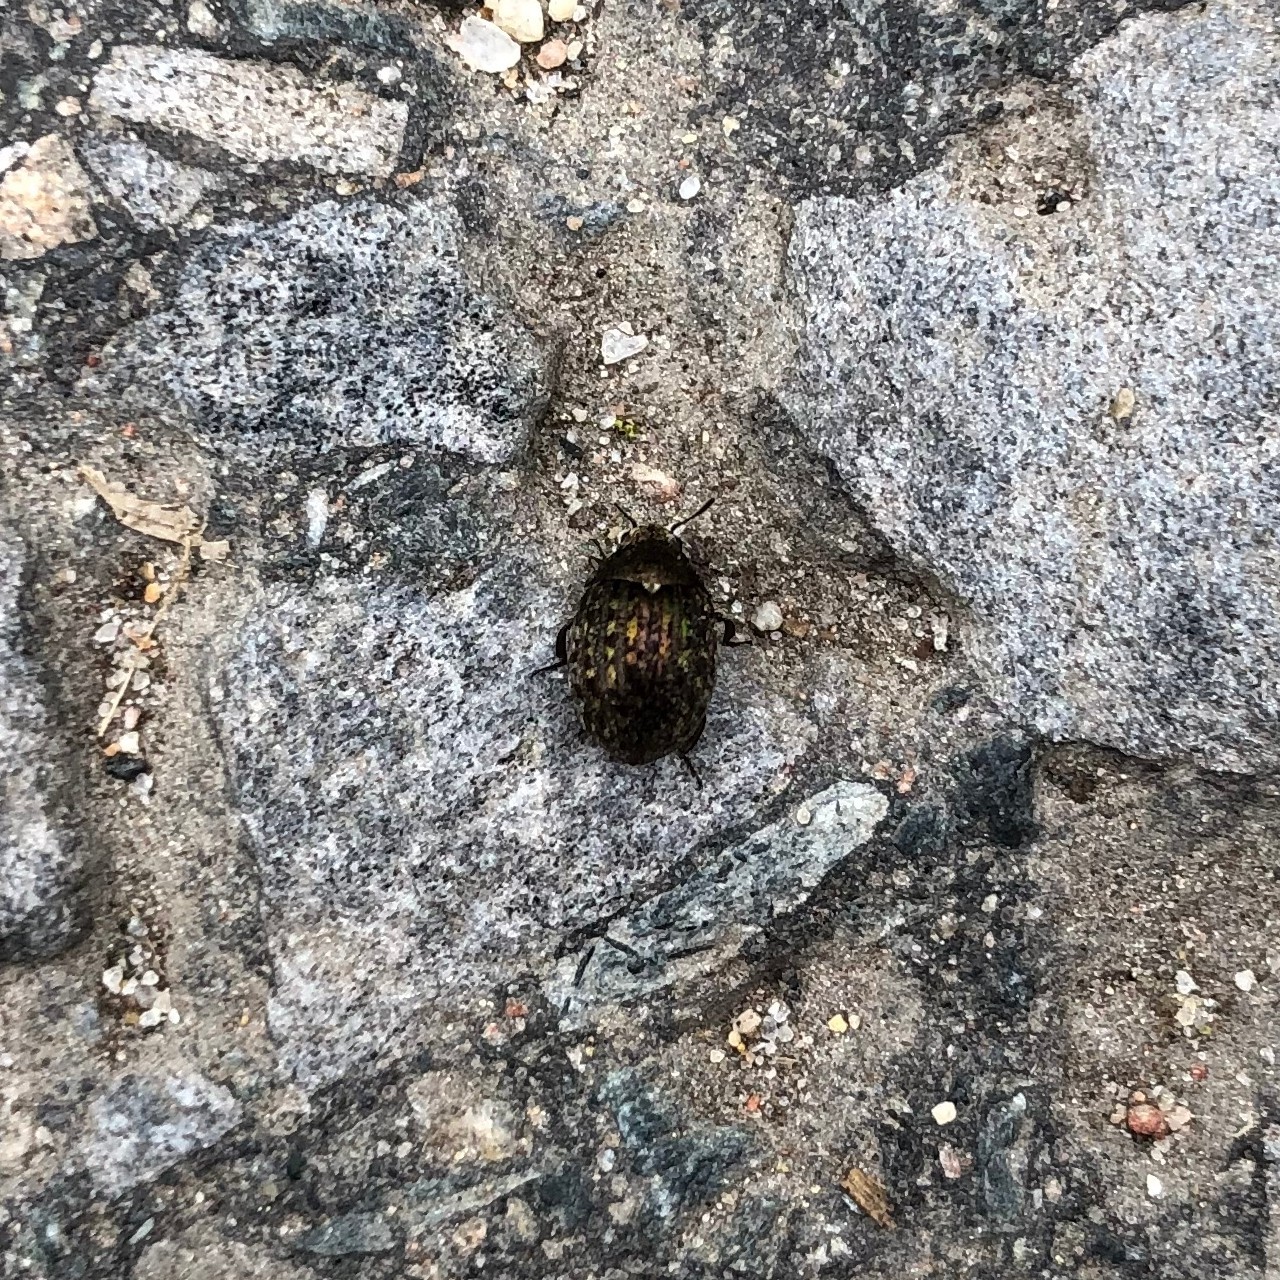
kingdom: Animalia
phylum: Arthropoda
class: Insecta
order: Coleoptera
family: Byrrhidae
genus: Cytilus
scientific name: Cytilus sericeus
